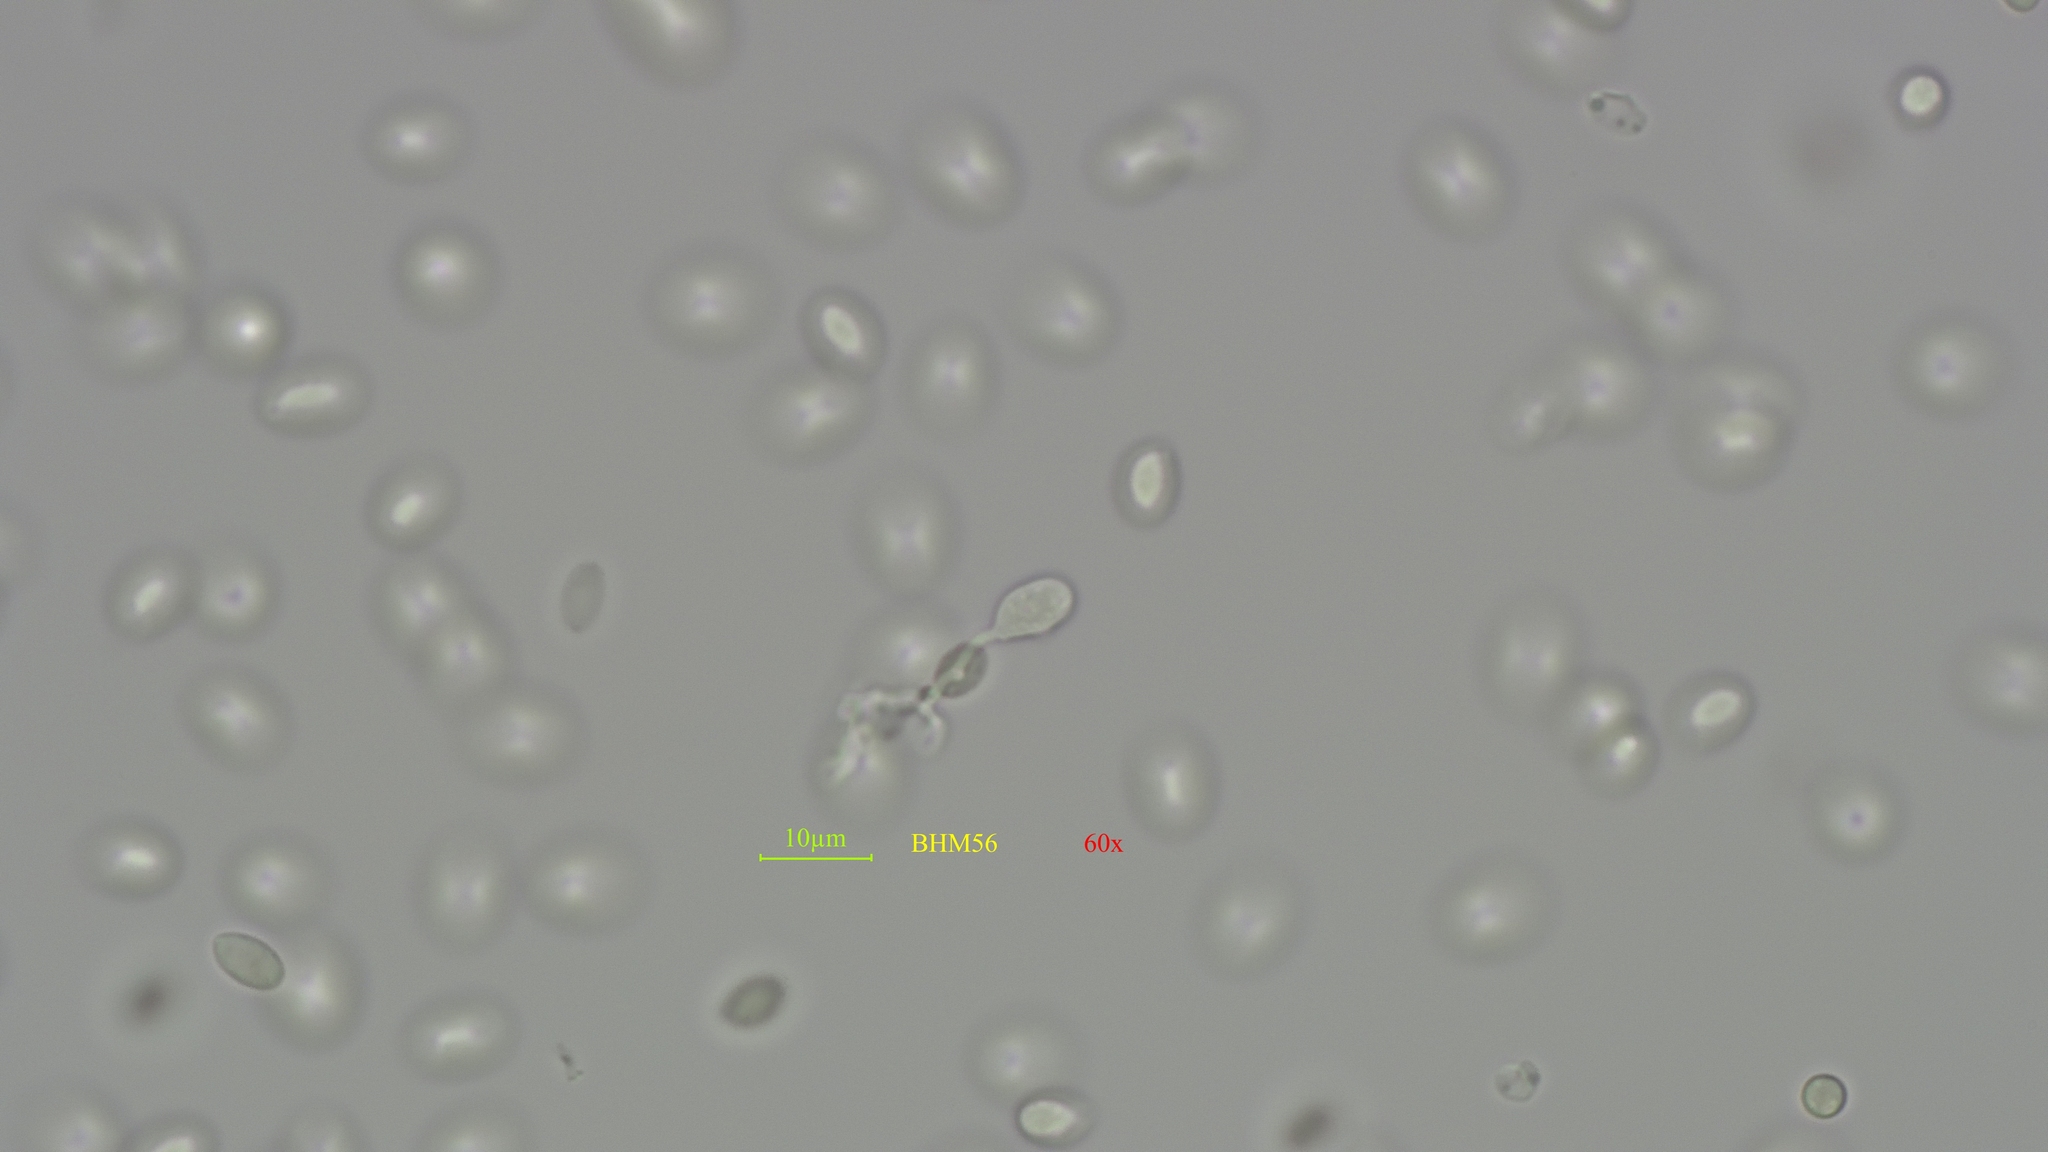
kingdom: Fungi
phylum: Basidiomycota
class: Agaricomycetes
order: Agaricales
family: Physalacriaceae
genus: Flammulina
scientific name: Flammulina velutipes
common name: Velvet shank
